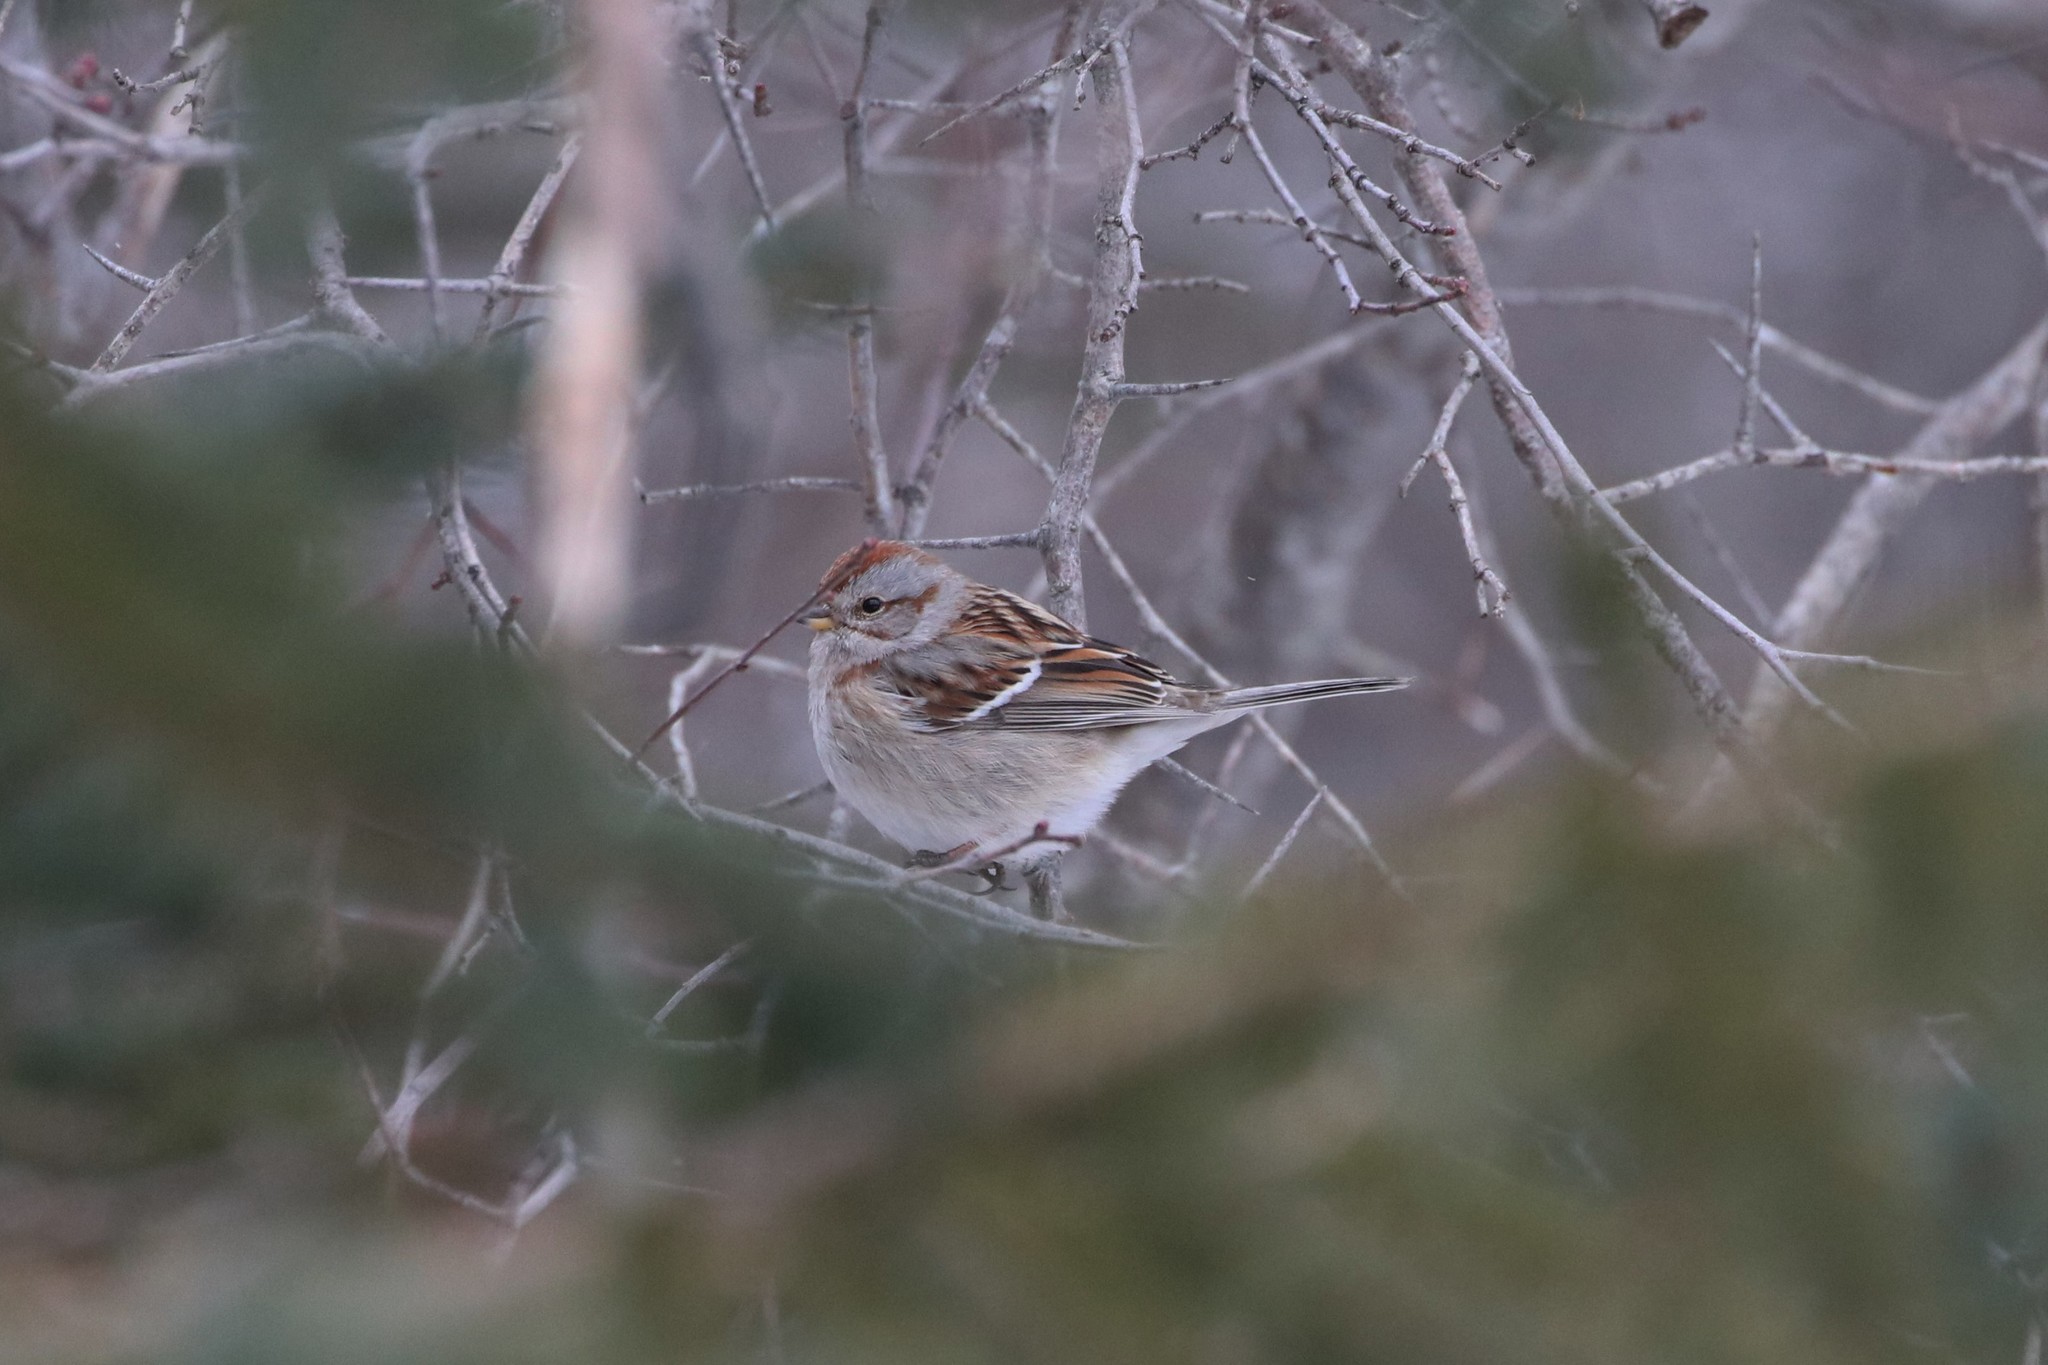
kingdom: Animalia
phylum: Chordata
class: Aves
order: Passeriformes
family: Passerellidae
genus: Spizelloides
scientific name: Spizelloides arborea
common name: American tree sparrow
